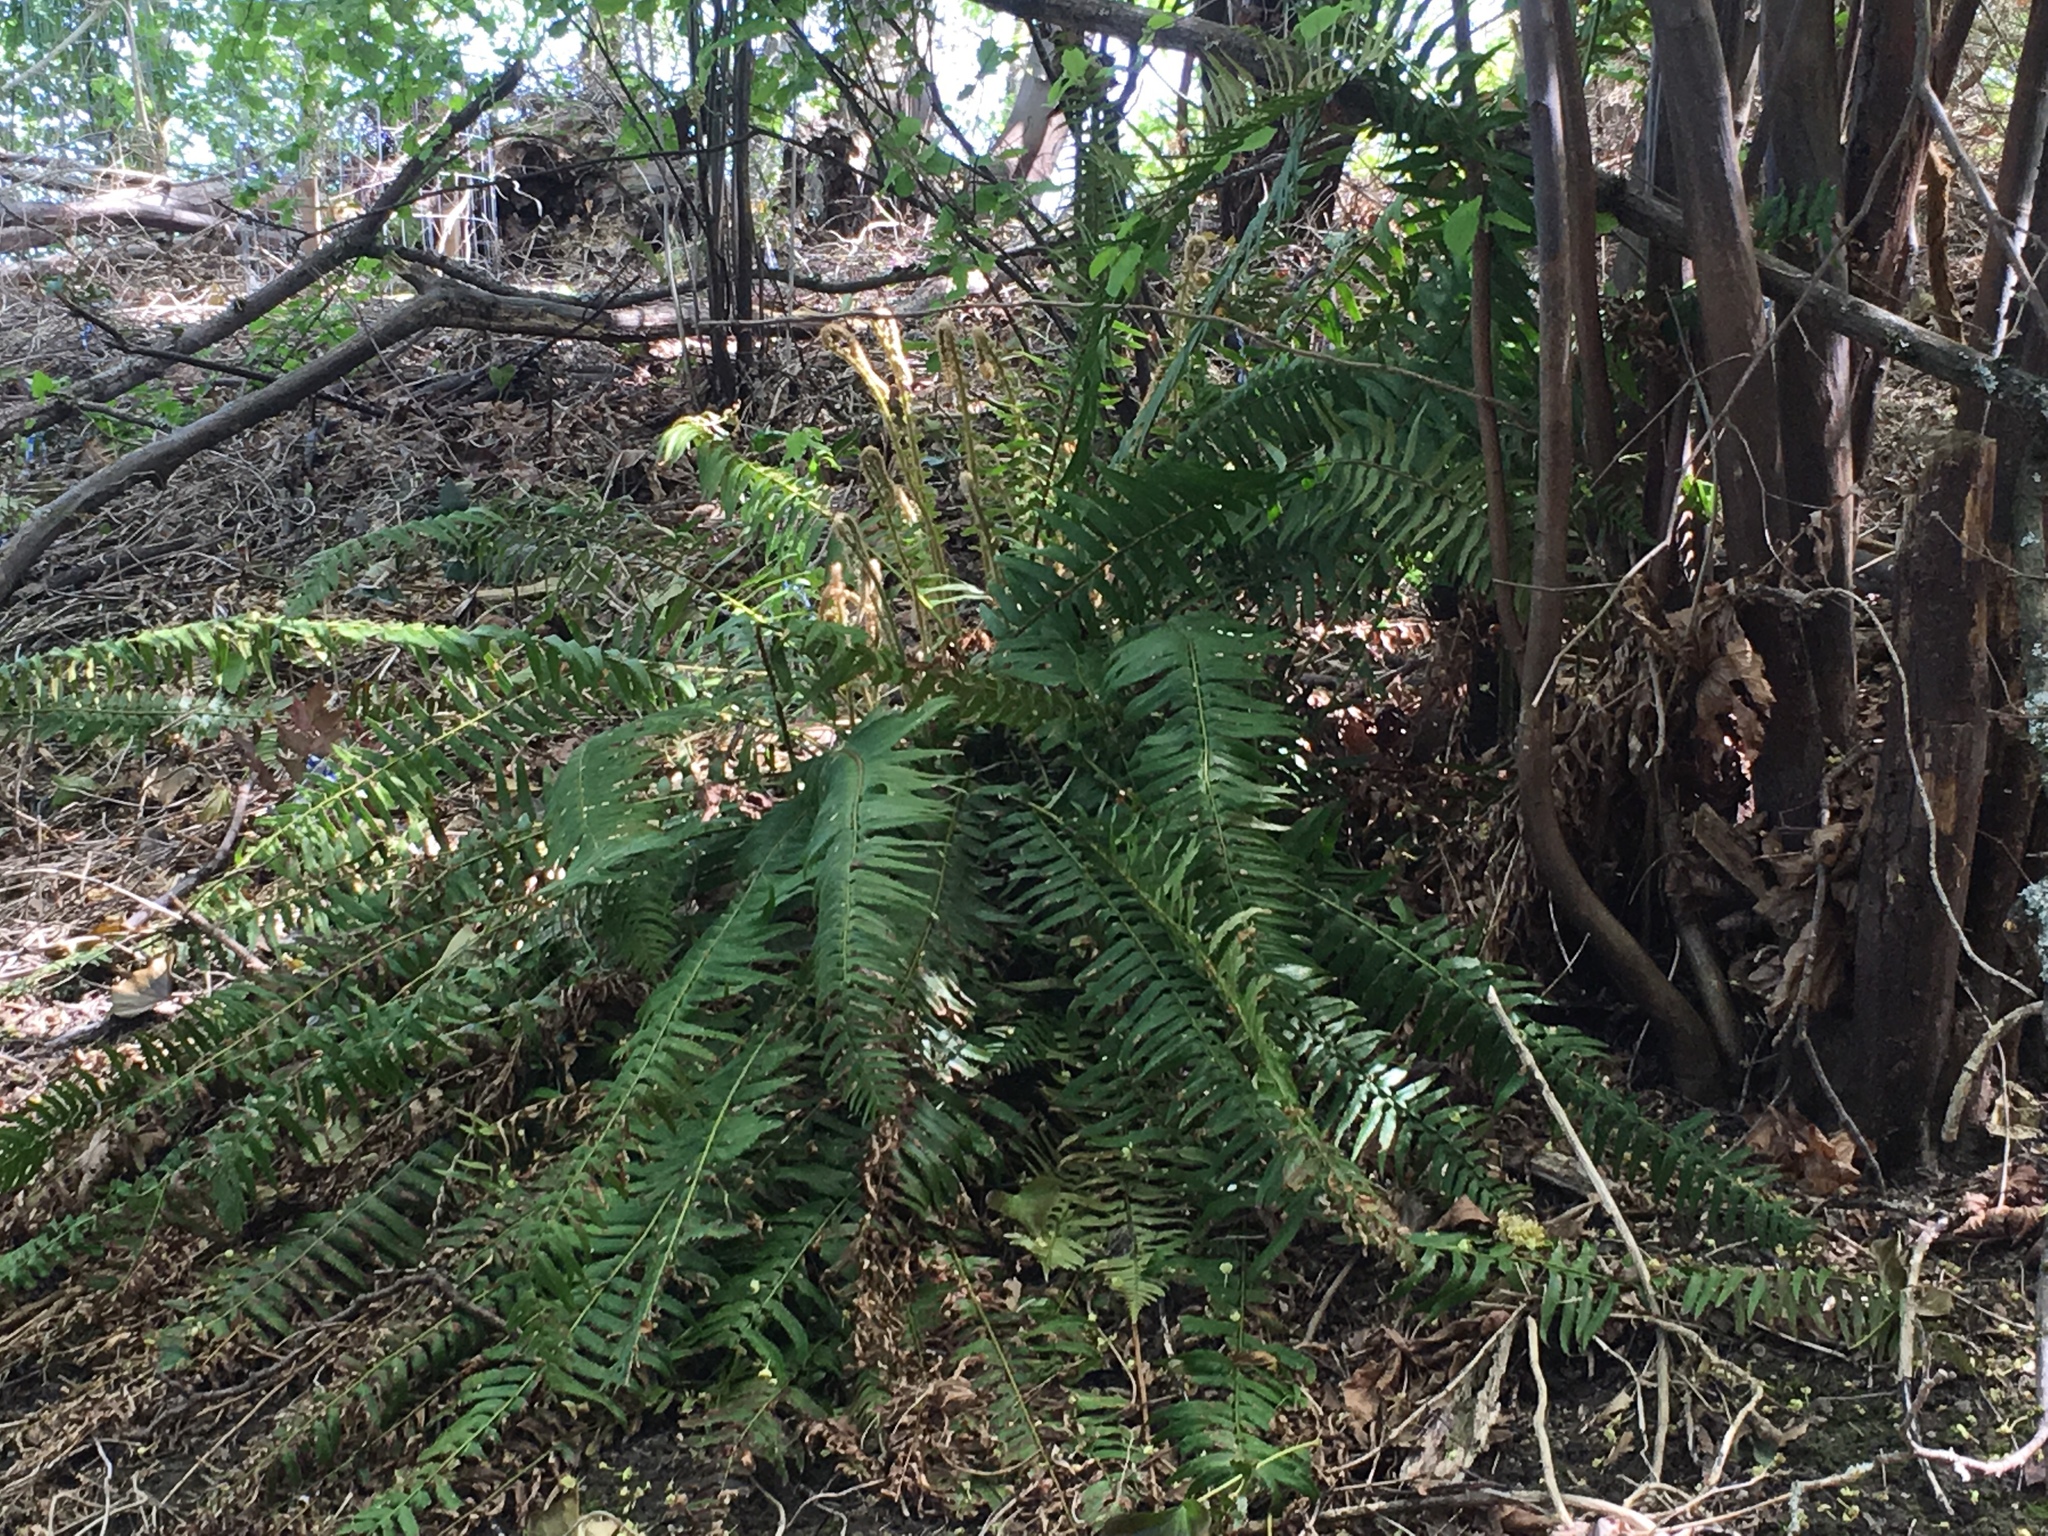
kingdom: Plantae
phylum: Tracheophyta
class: Polypodiopsida
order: Polypodiales
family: Dryopteridaceae
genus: Polystichum
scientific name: Polystichum munitum
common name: Western sword-fern
